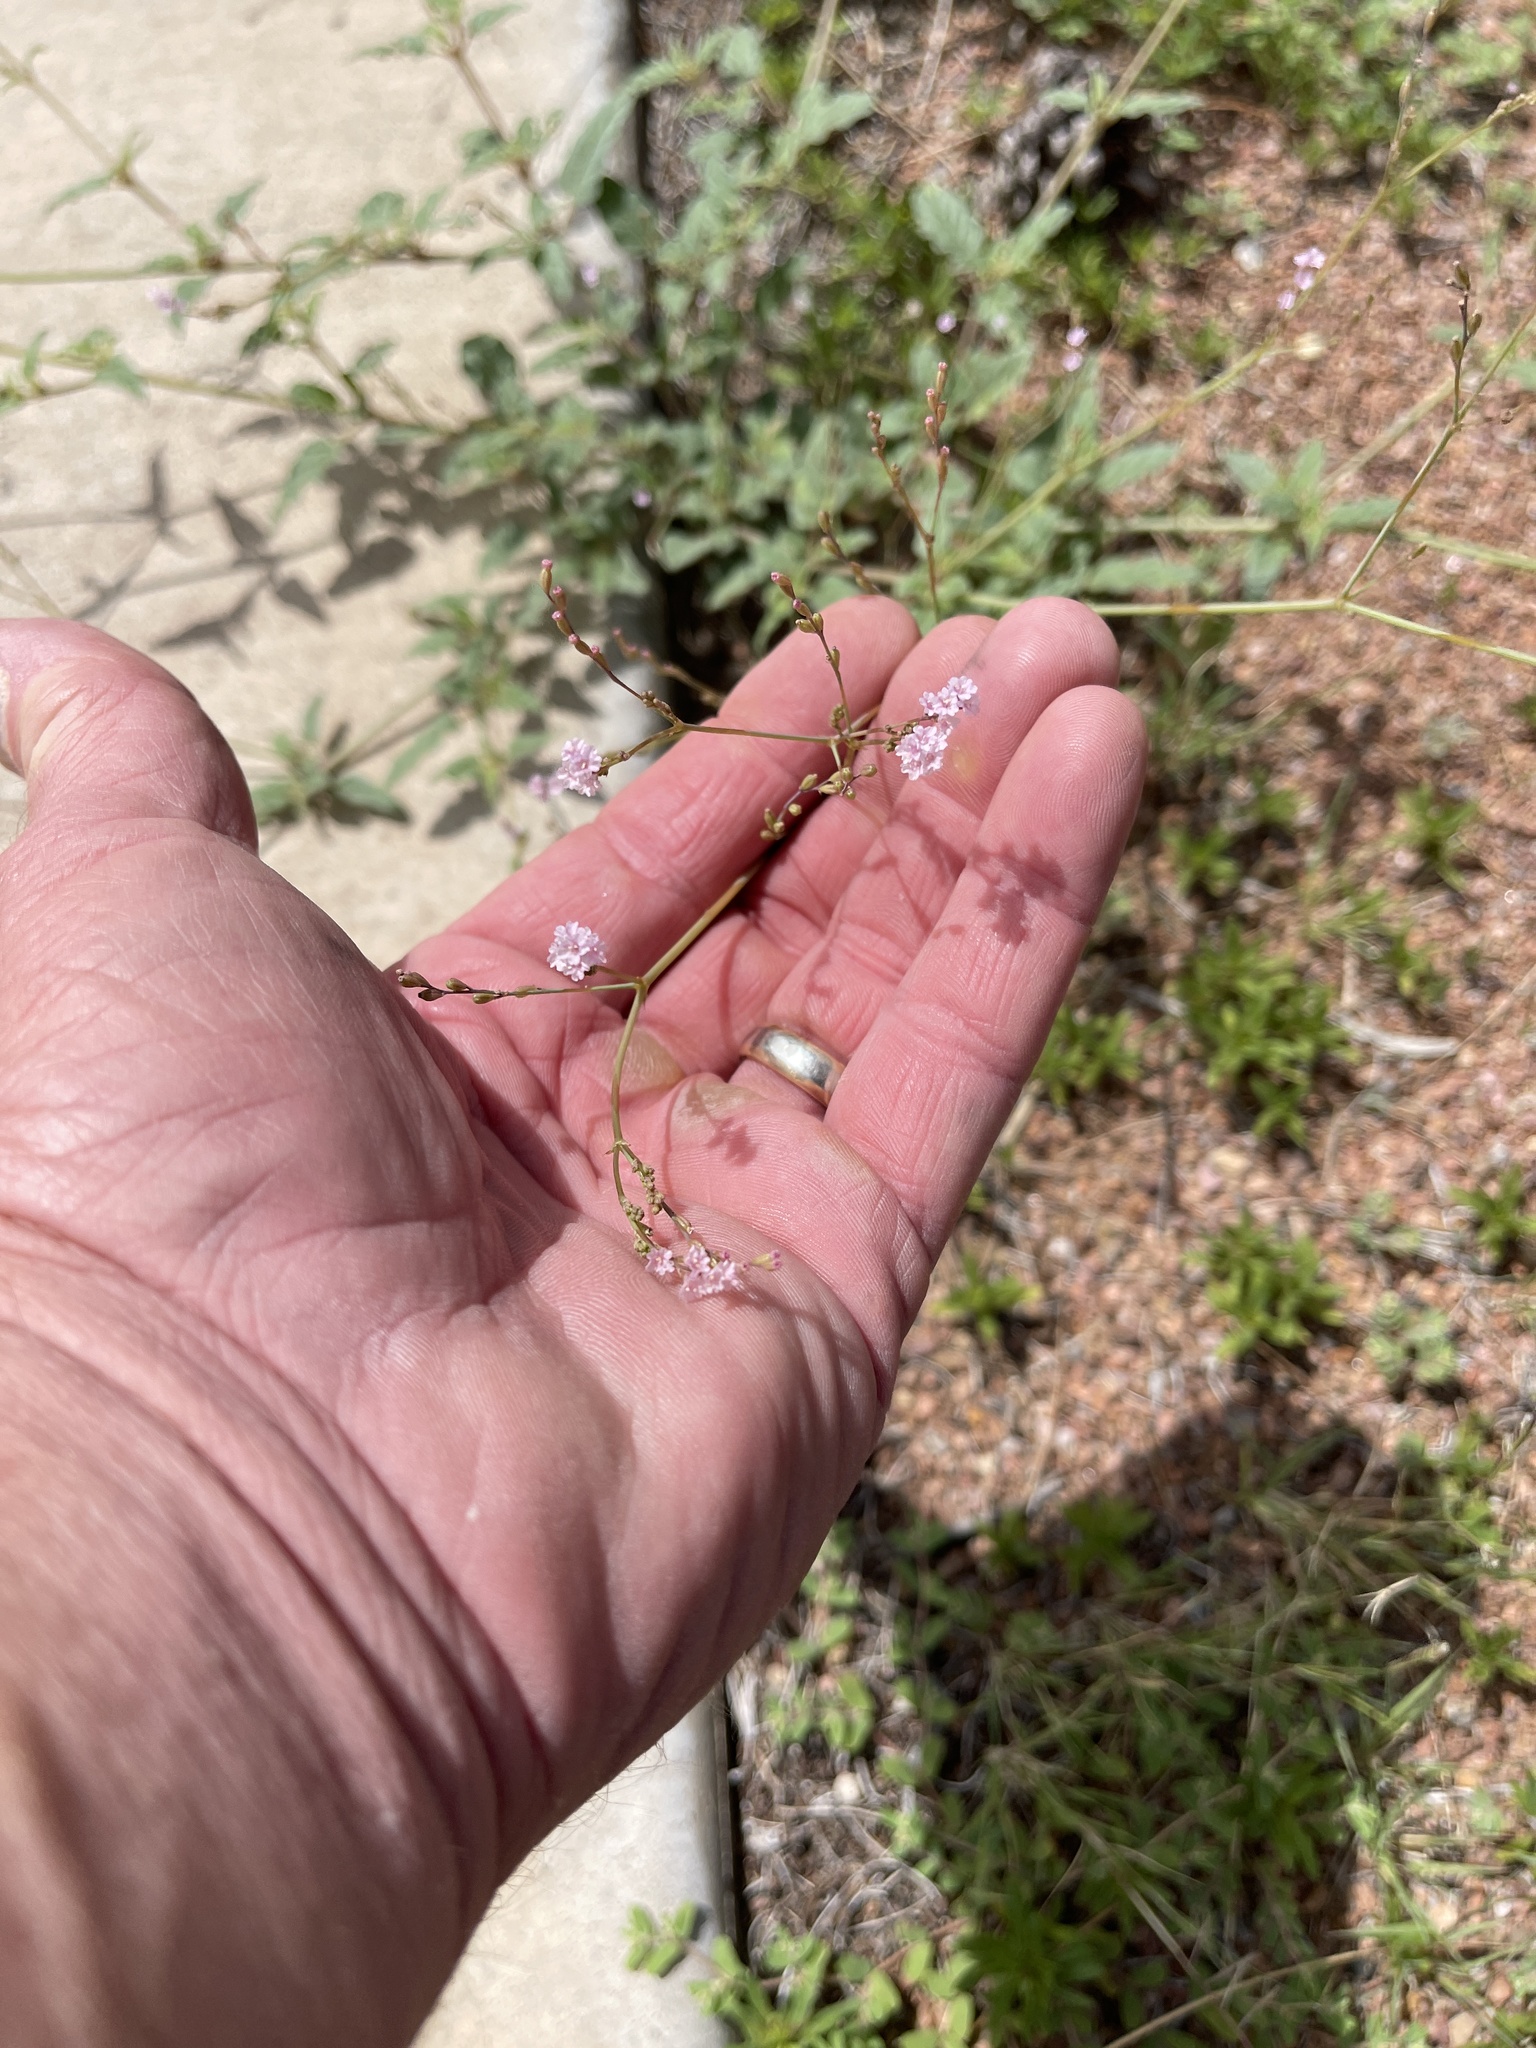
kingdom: Plantae
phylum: Tracheophyta
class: Magnoliopsida
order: Caryophyllales
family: Nyctaginaceae
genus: Boerhavia
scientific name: Boerhavia coccinea
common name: Scarlet spiderling
